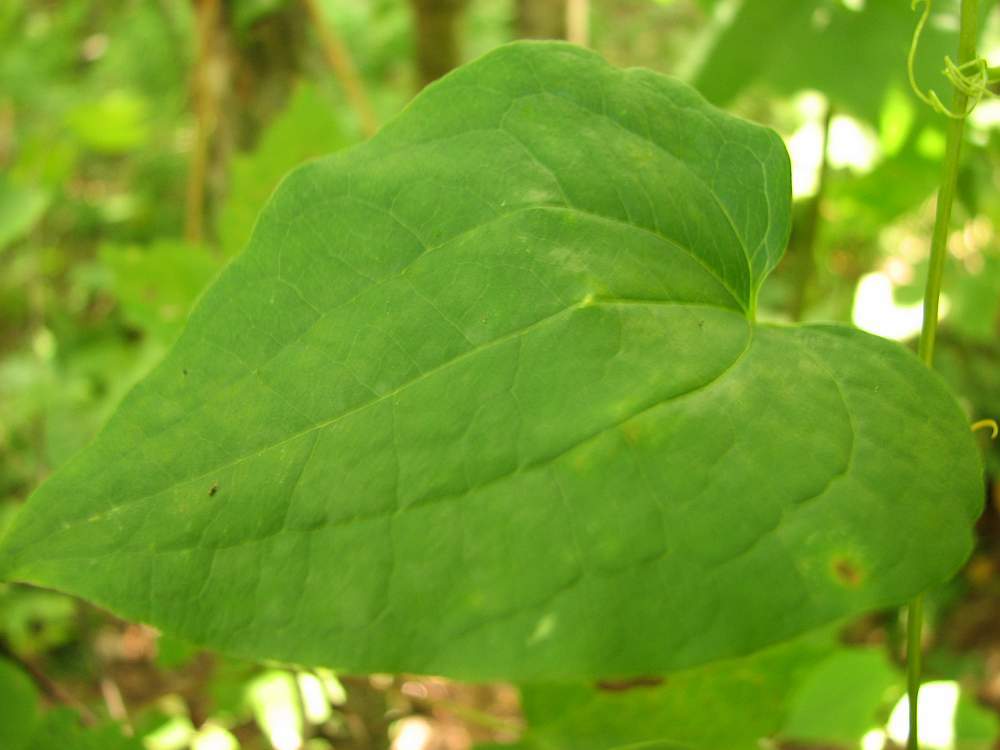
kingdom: Plantae
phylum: Tracheophyta
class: Liliopsida
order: Liliales
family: Smilacaceae
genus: Smilax
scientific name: Smilax herbacea
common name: Jacob's-ladder
